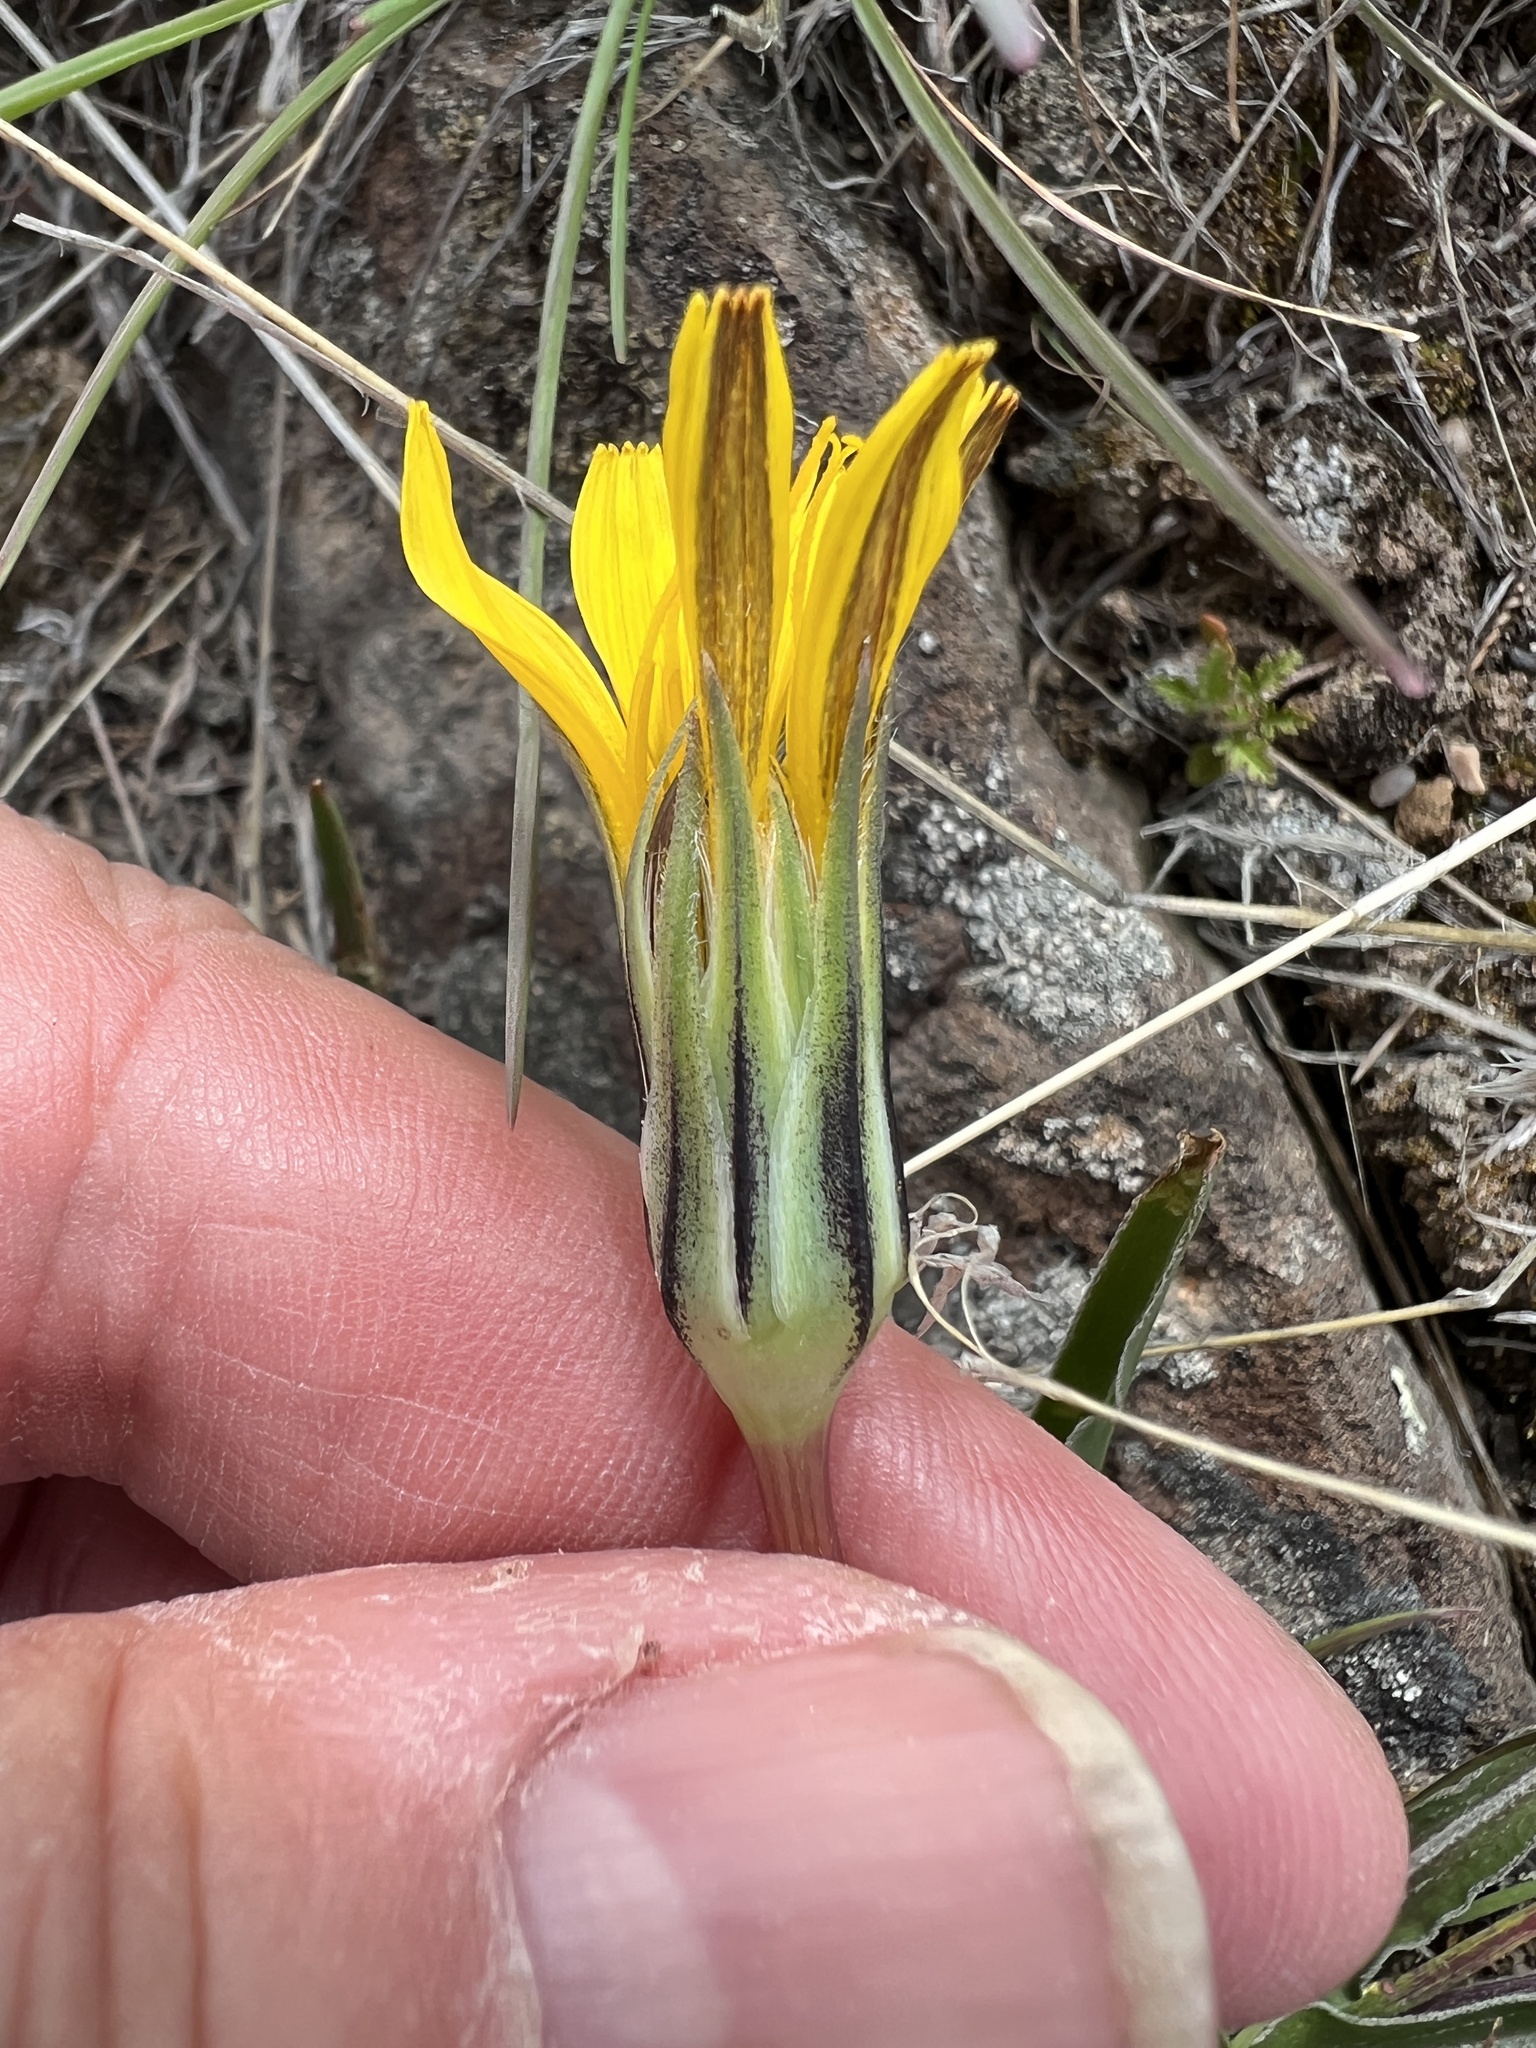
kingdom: Plantae
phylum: Tracheophyta
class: Magnoliopsida
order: Asterales
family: Asteraceae
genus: Microseris
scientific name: Microseris troximoides
